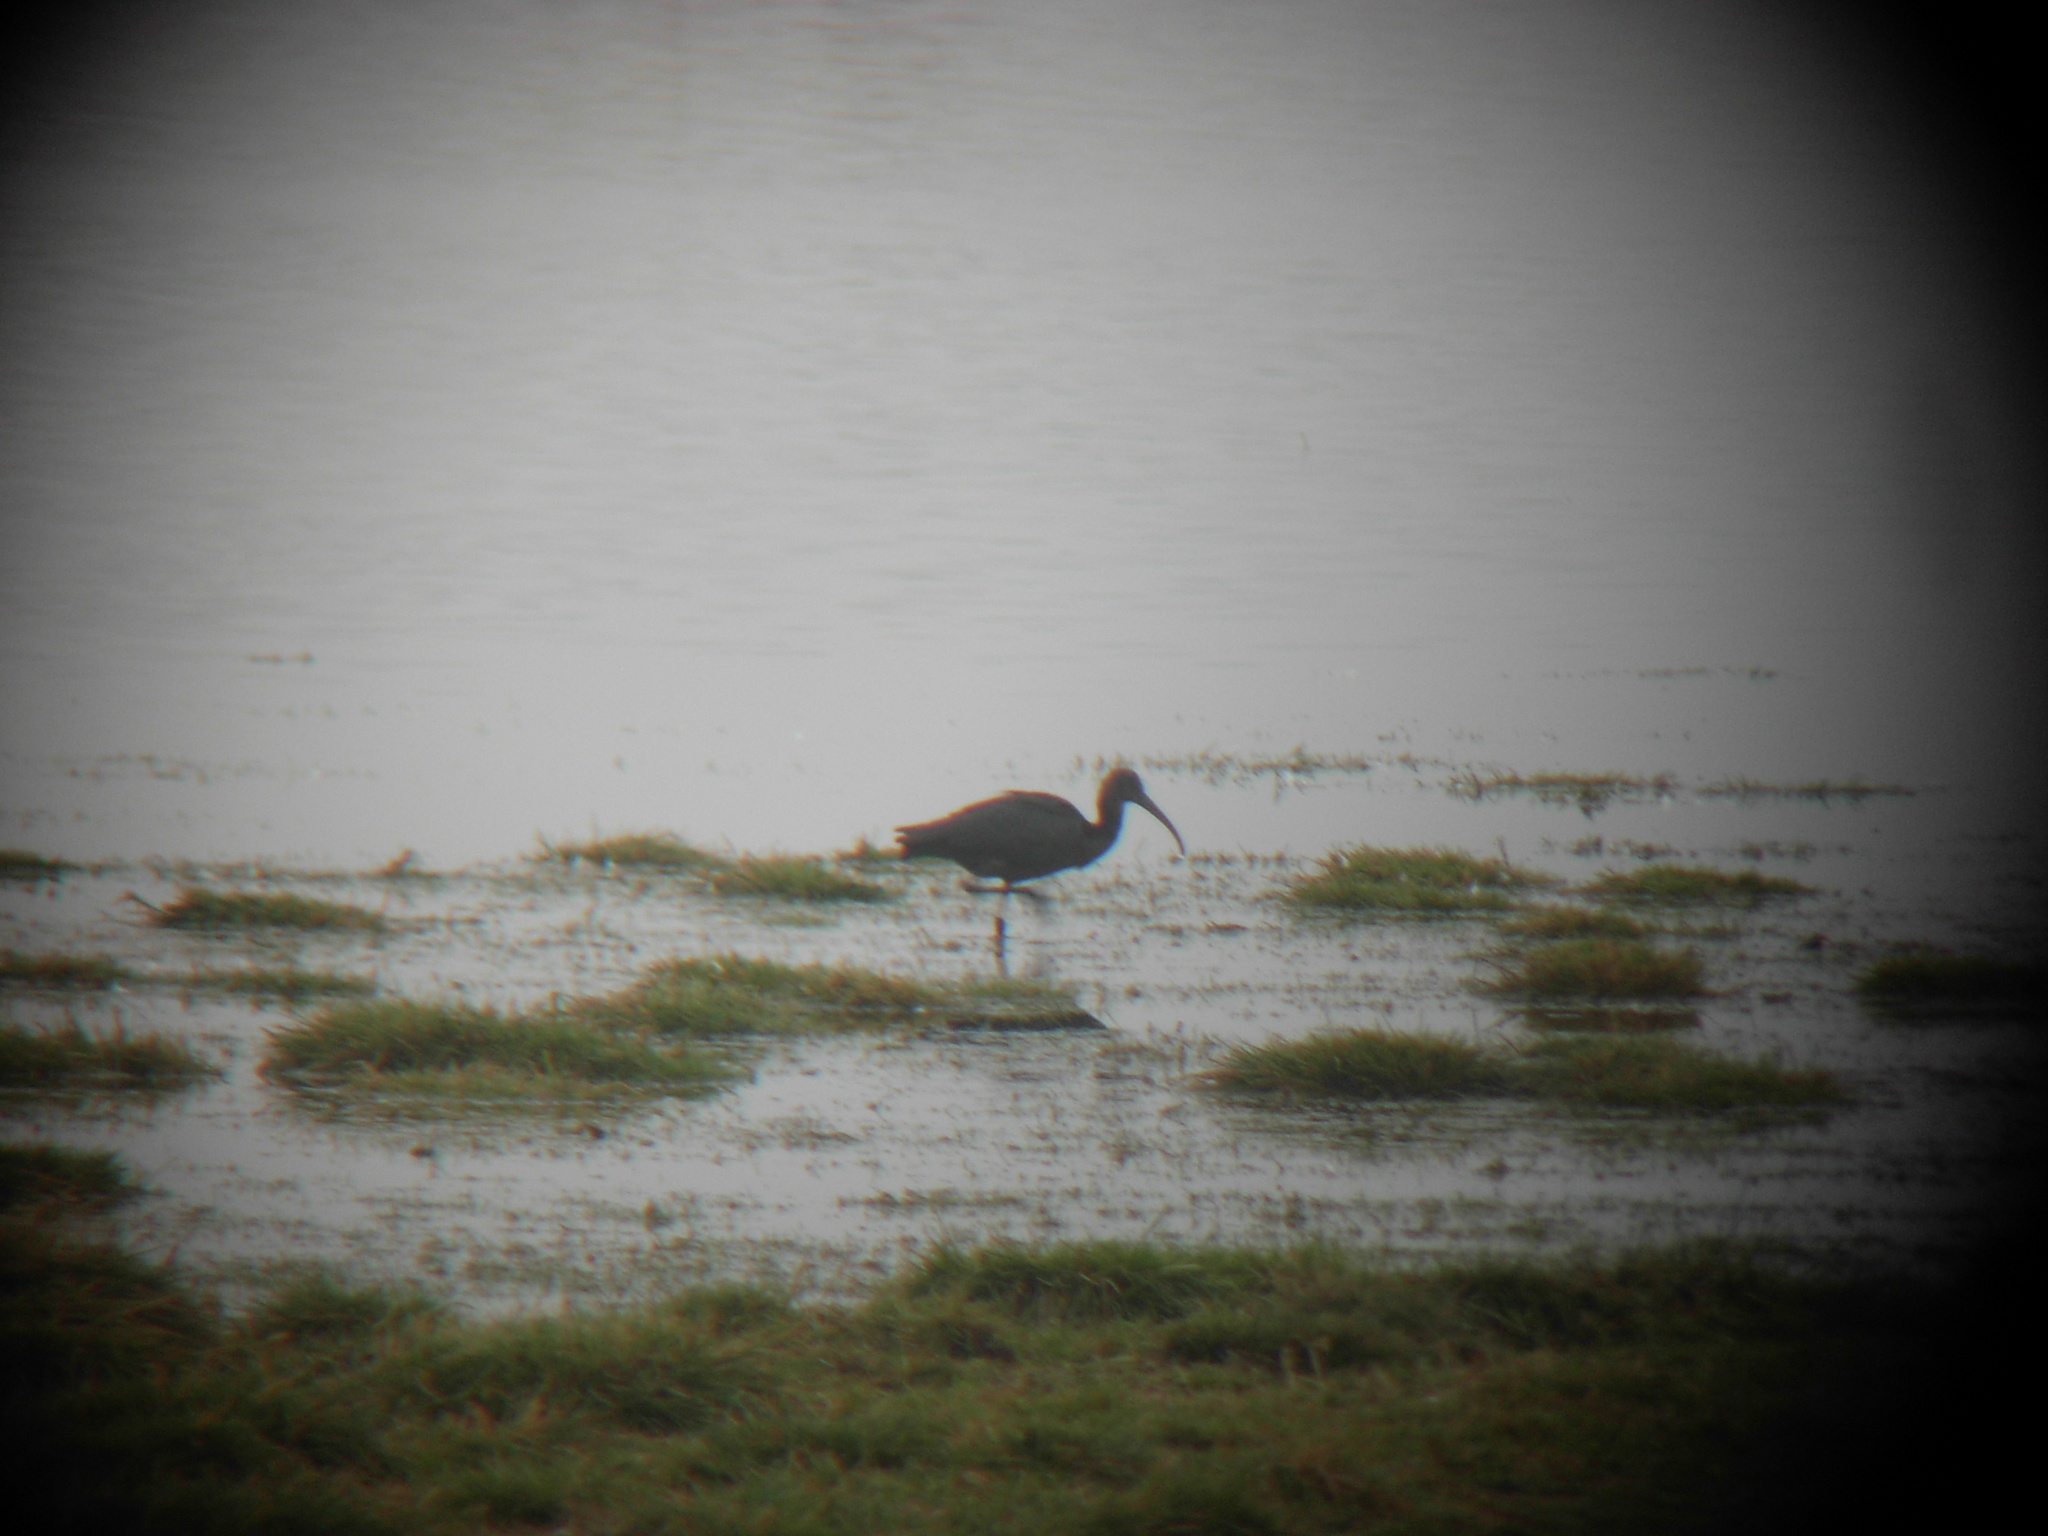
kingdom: Animalia
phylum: Chordata
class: Aves
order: Pelecaniformes
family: Threskiornithidae
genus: Plegadis
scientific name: Plegadis falcinellus
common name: Glossy ibis
